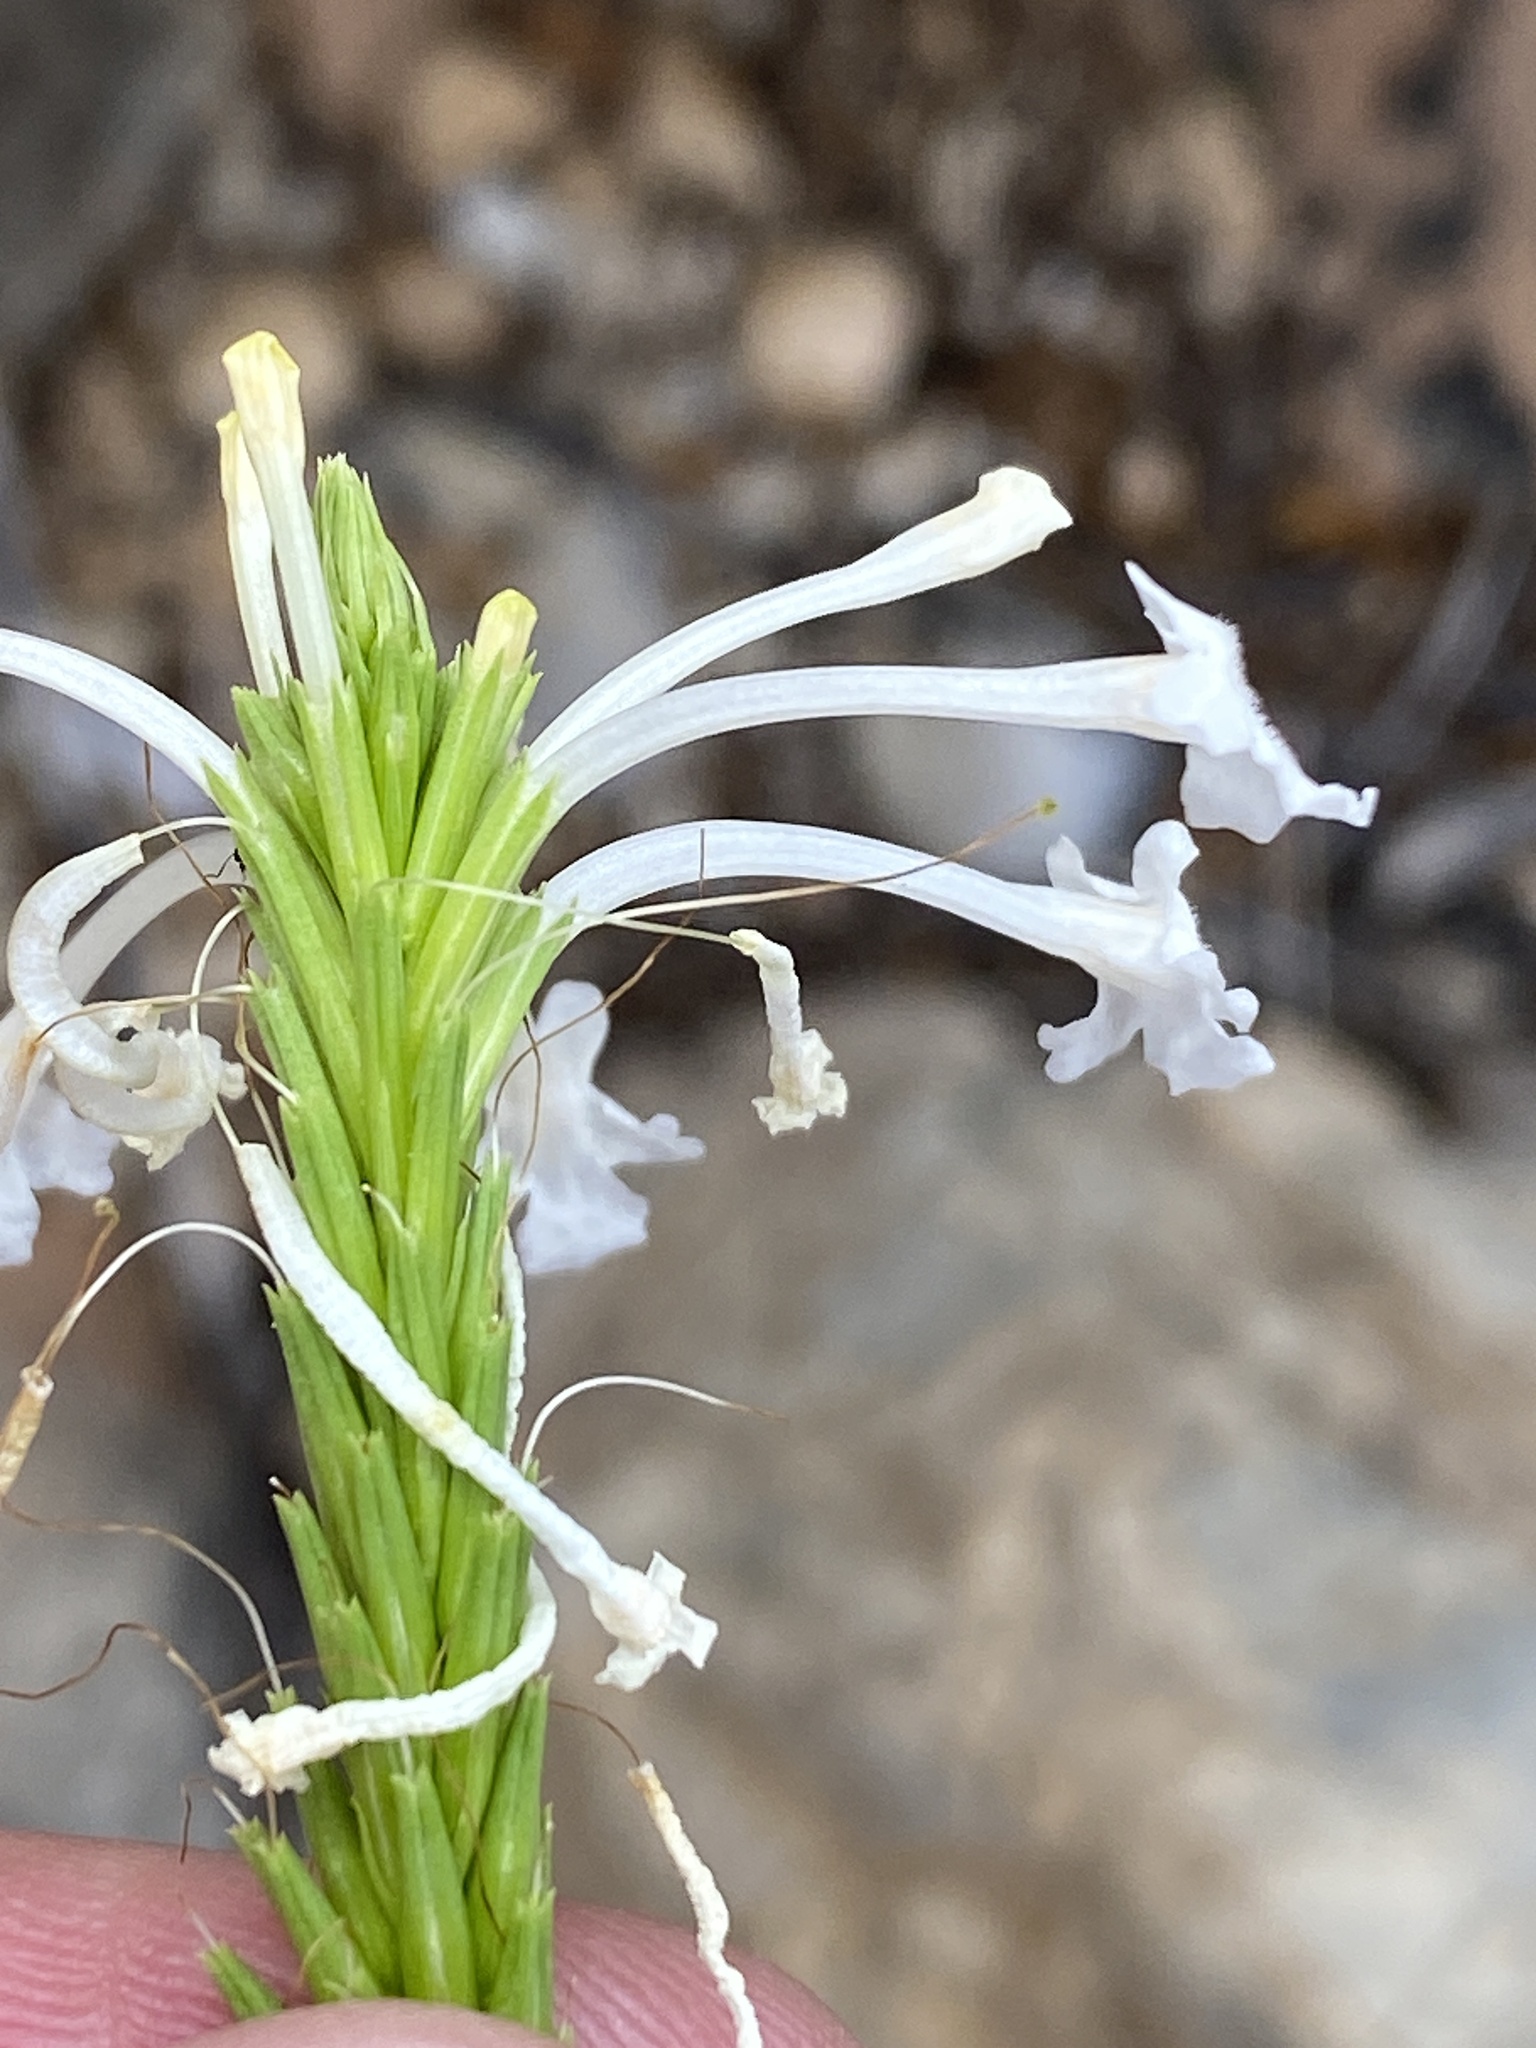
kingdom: Plantae
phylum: Tracheophyta
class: Magnoliopsida
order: Lamiales
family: Verbenaceae
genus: Chascanum
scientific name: Chascanum garipense
